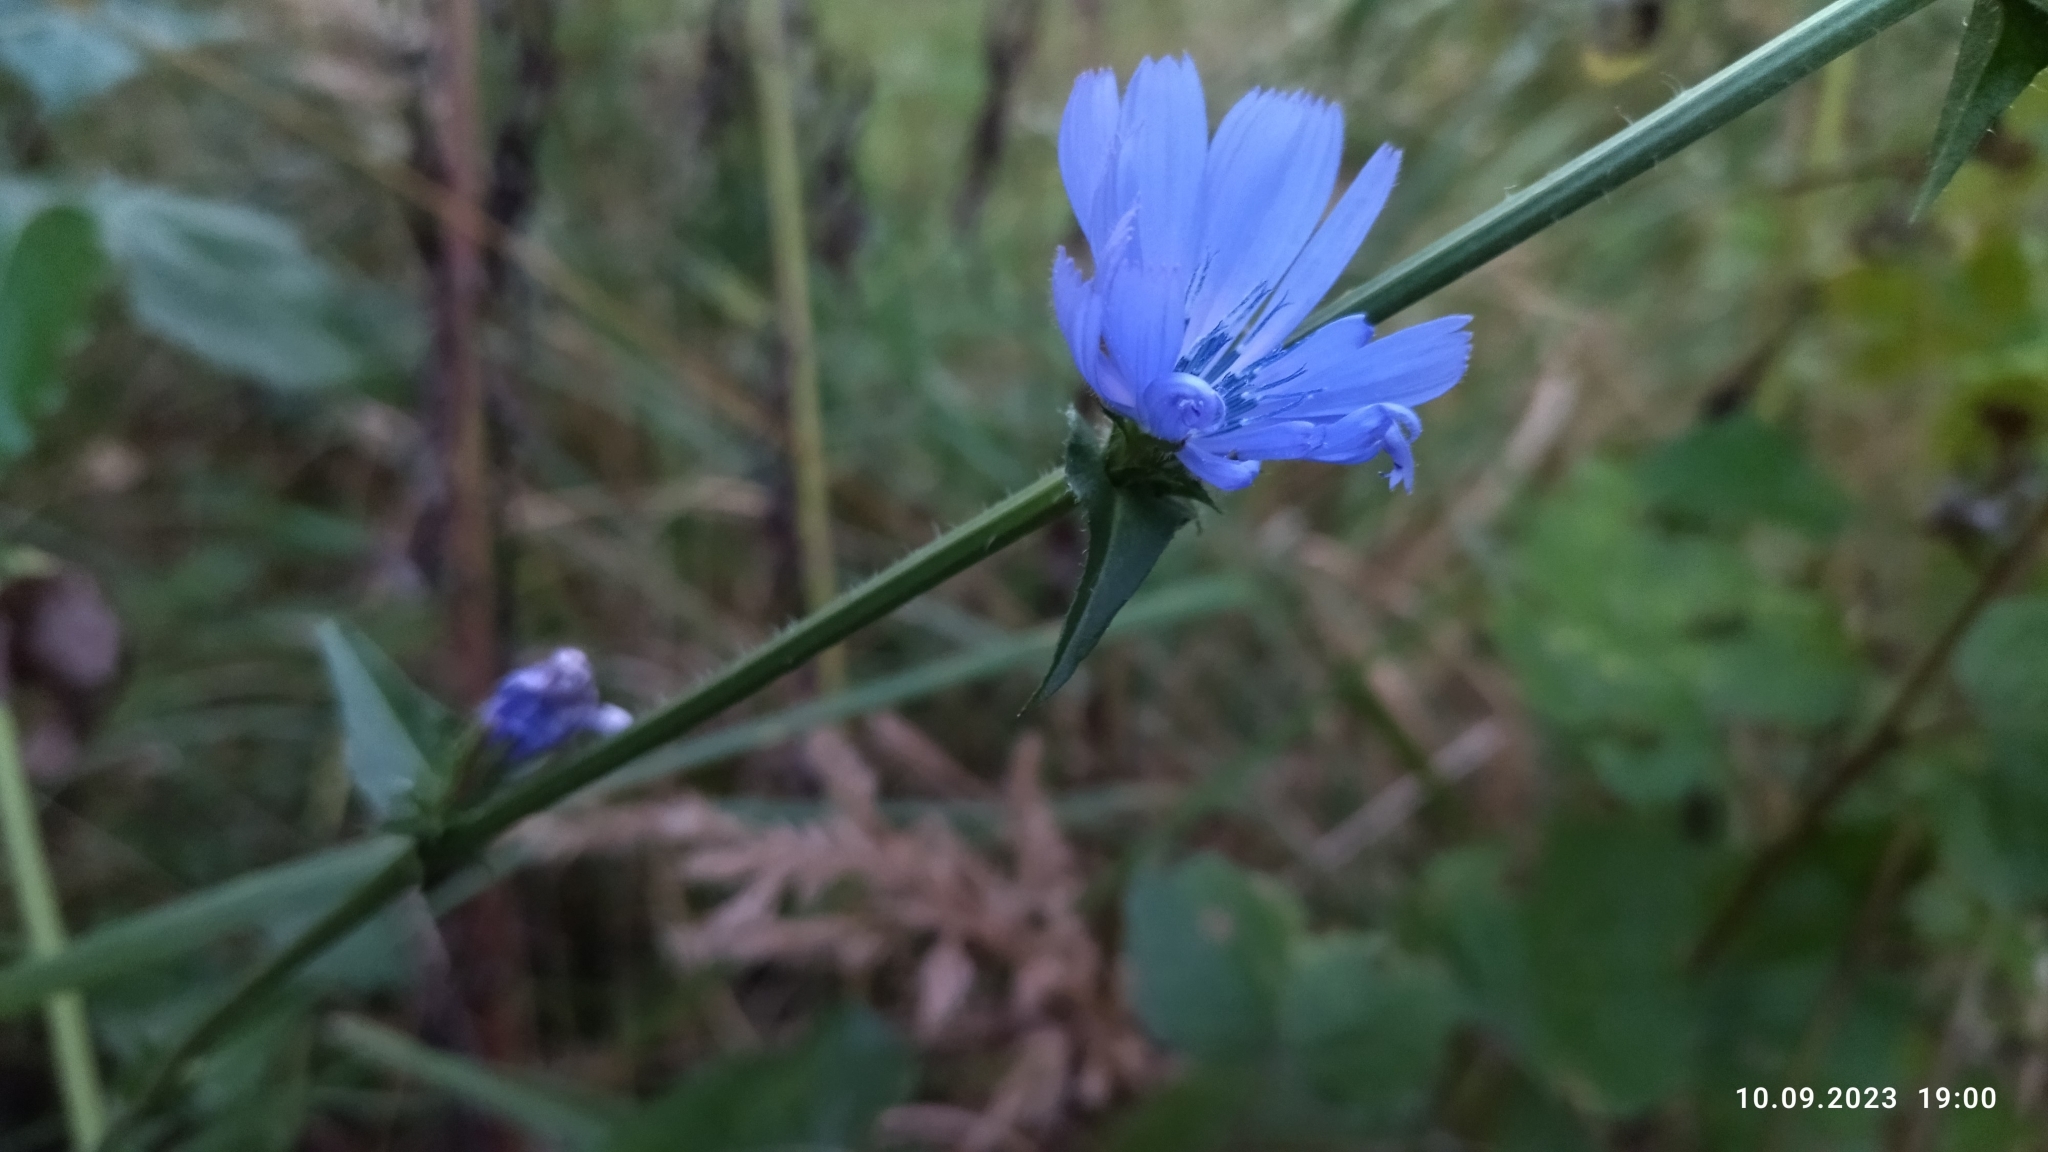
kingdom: Plantae
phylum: Tracheophyta
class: Magnoliopsida
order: Asterales
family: Asteraceae
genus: Cichorium
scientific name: Cichorium intybus
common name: Chicory
